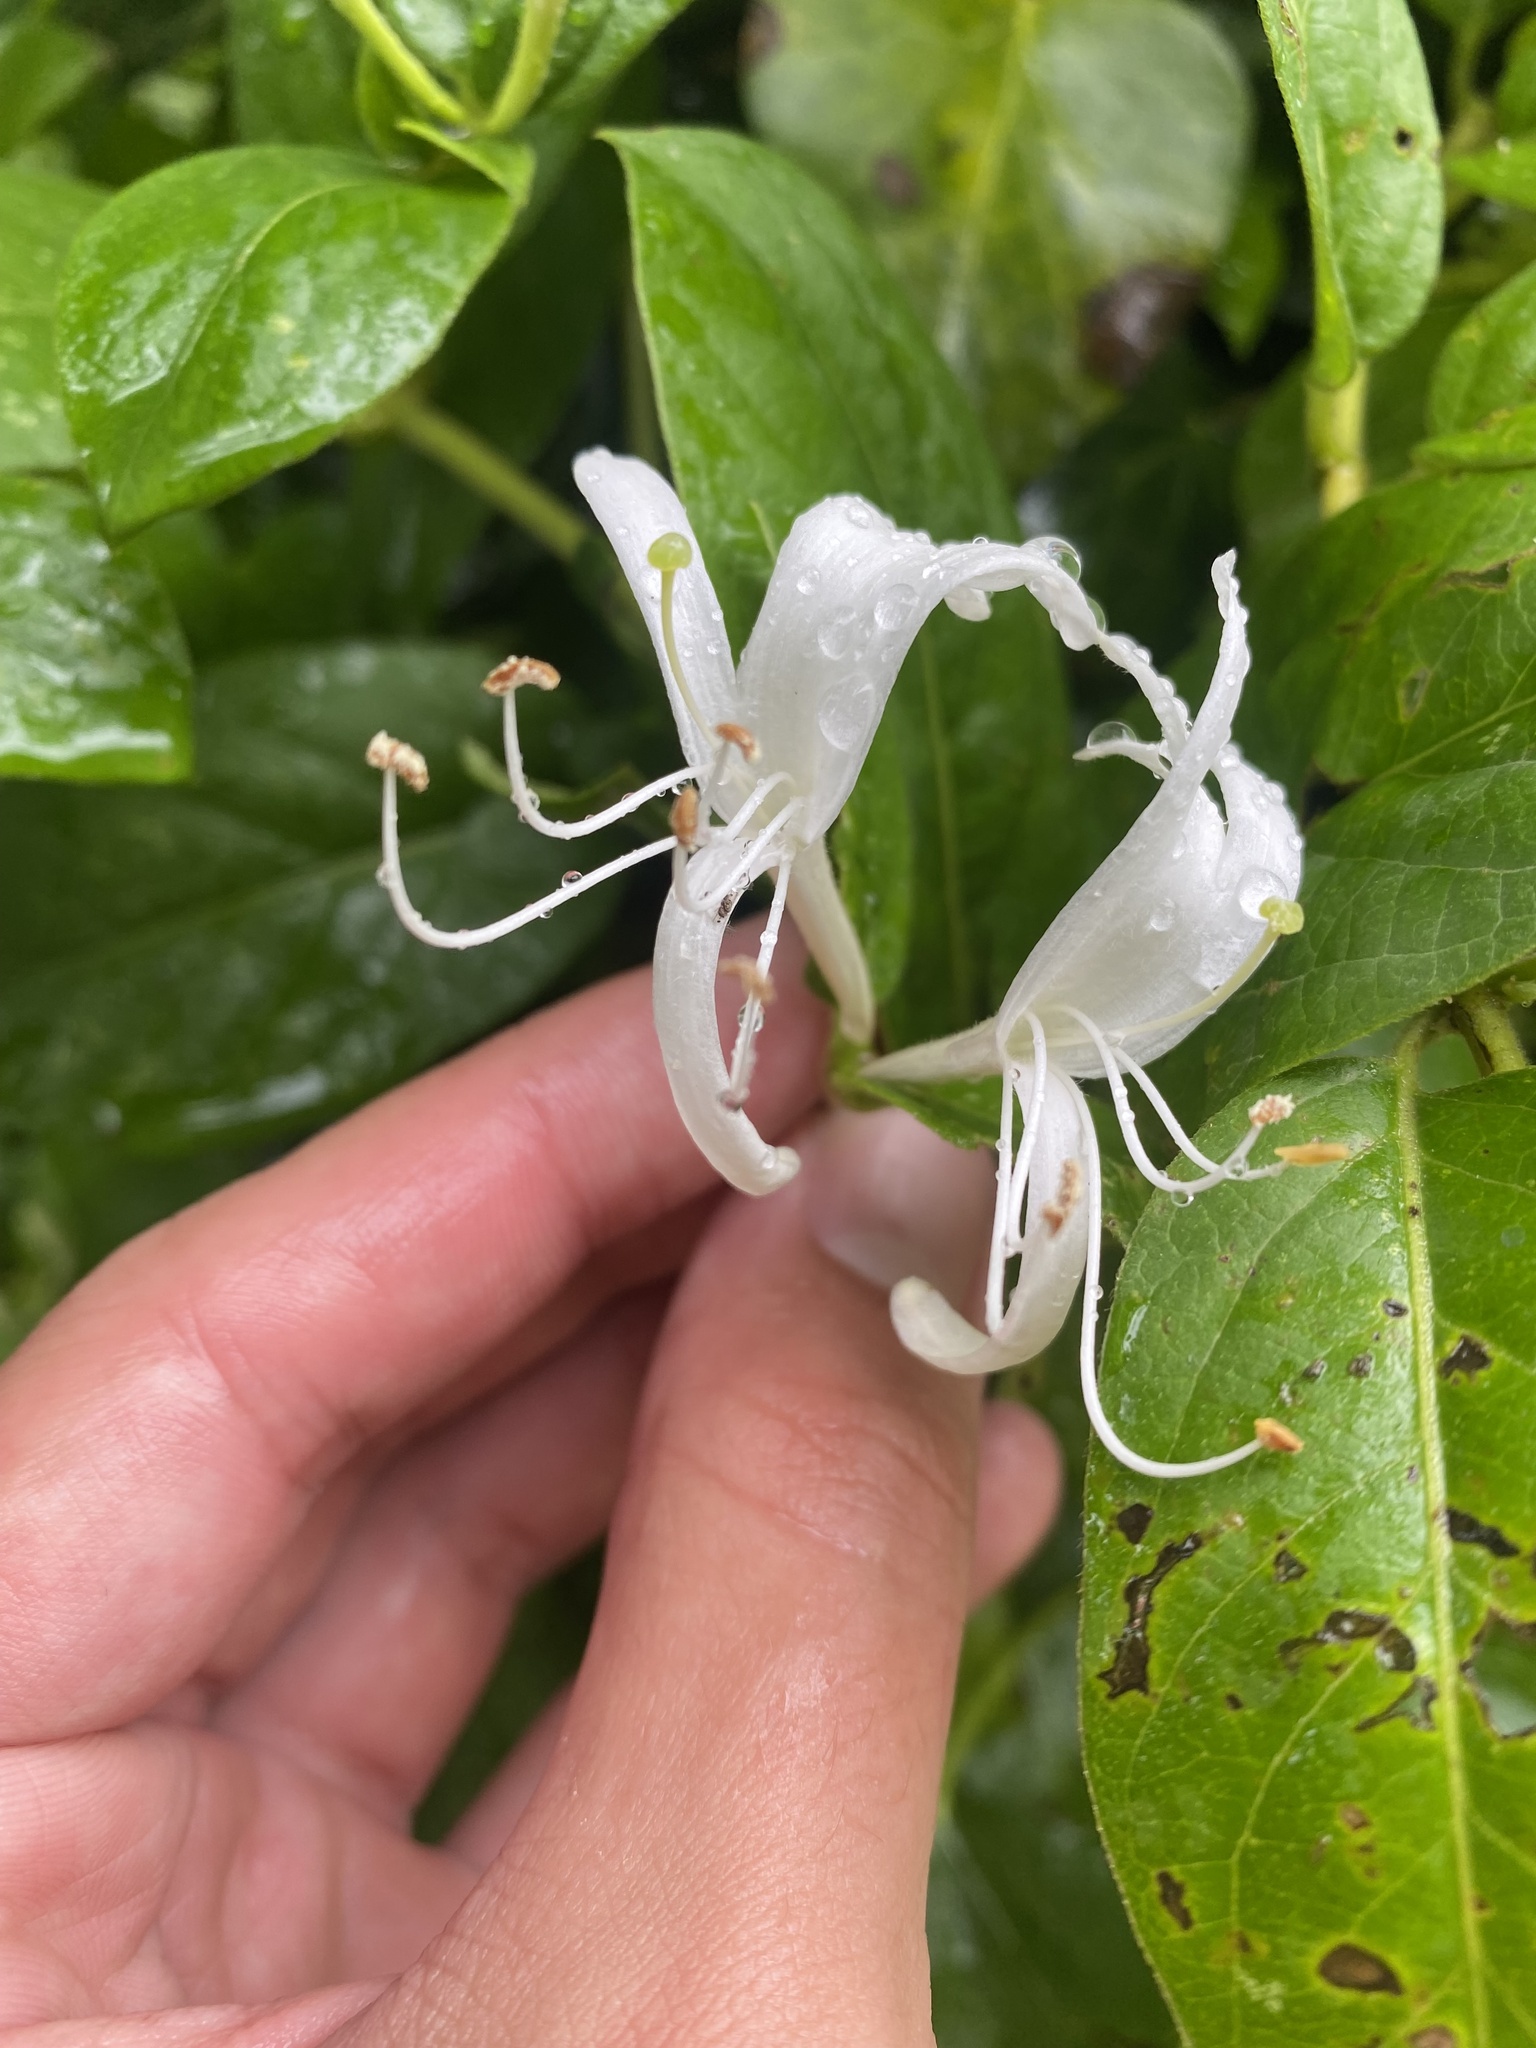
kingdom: Plantae
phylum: Tracheophyta
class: Magnoliopsida
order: Dipsacales
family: Caprifoliaceae
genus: Lonicera
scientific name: Lonicera japonica
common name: Japanese honeysuckle
